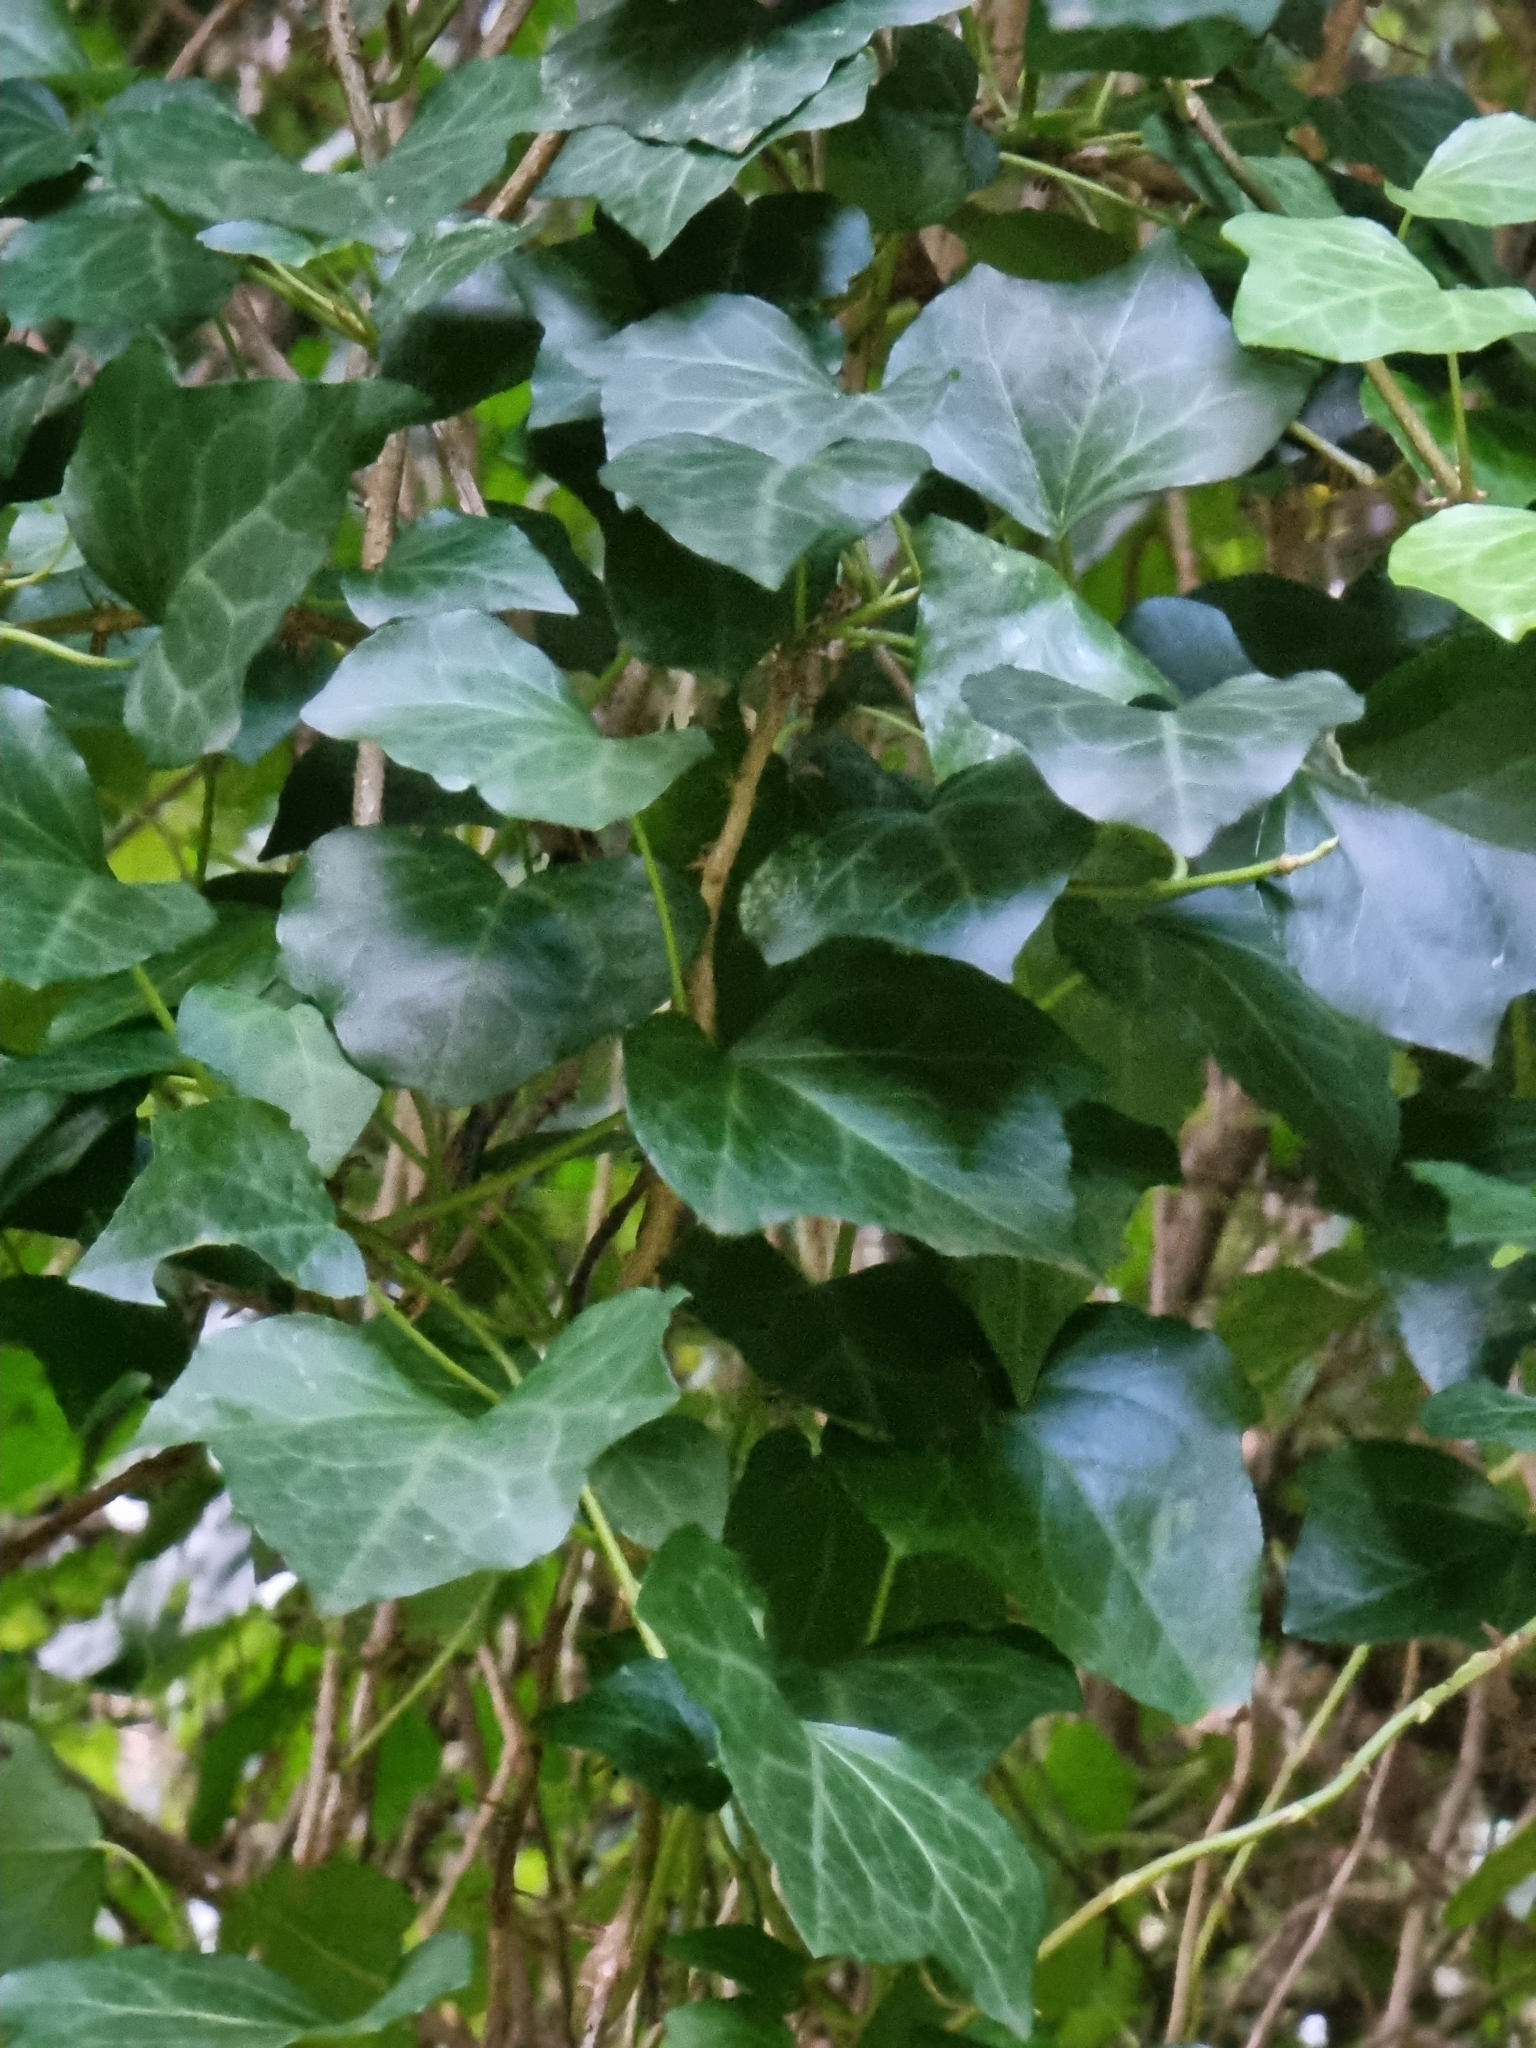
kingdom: Plantae
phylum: Tracheophyta
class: Magnoliopsida
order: Apiales
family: Araliaceae
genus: Hedera
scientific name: Hedera maderensis
